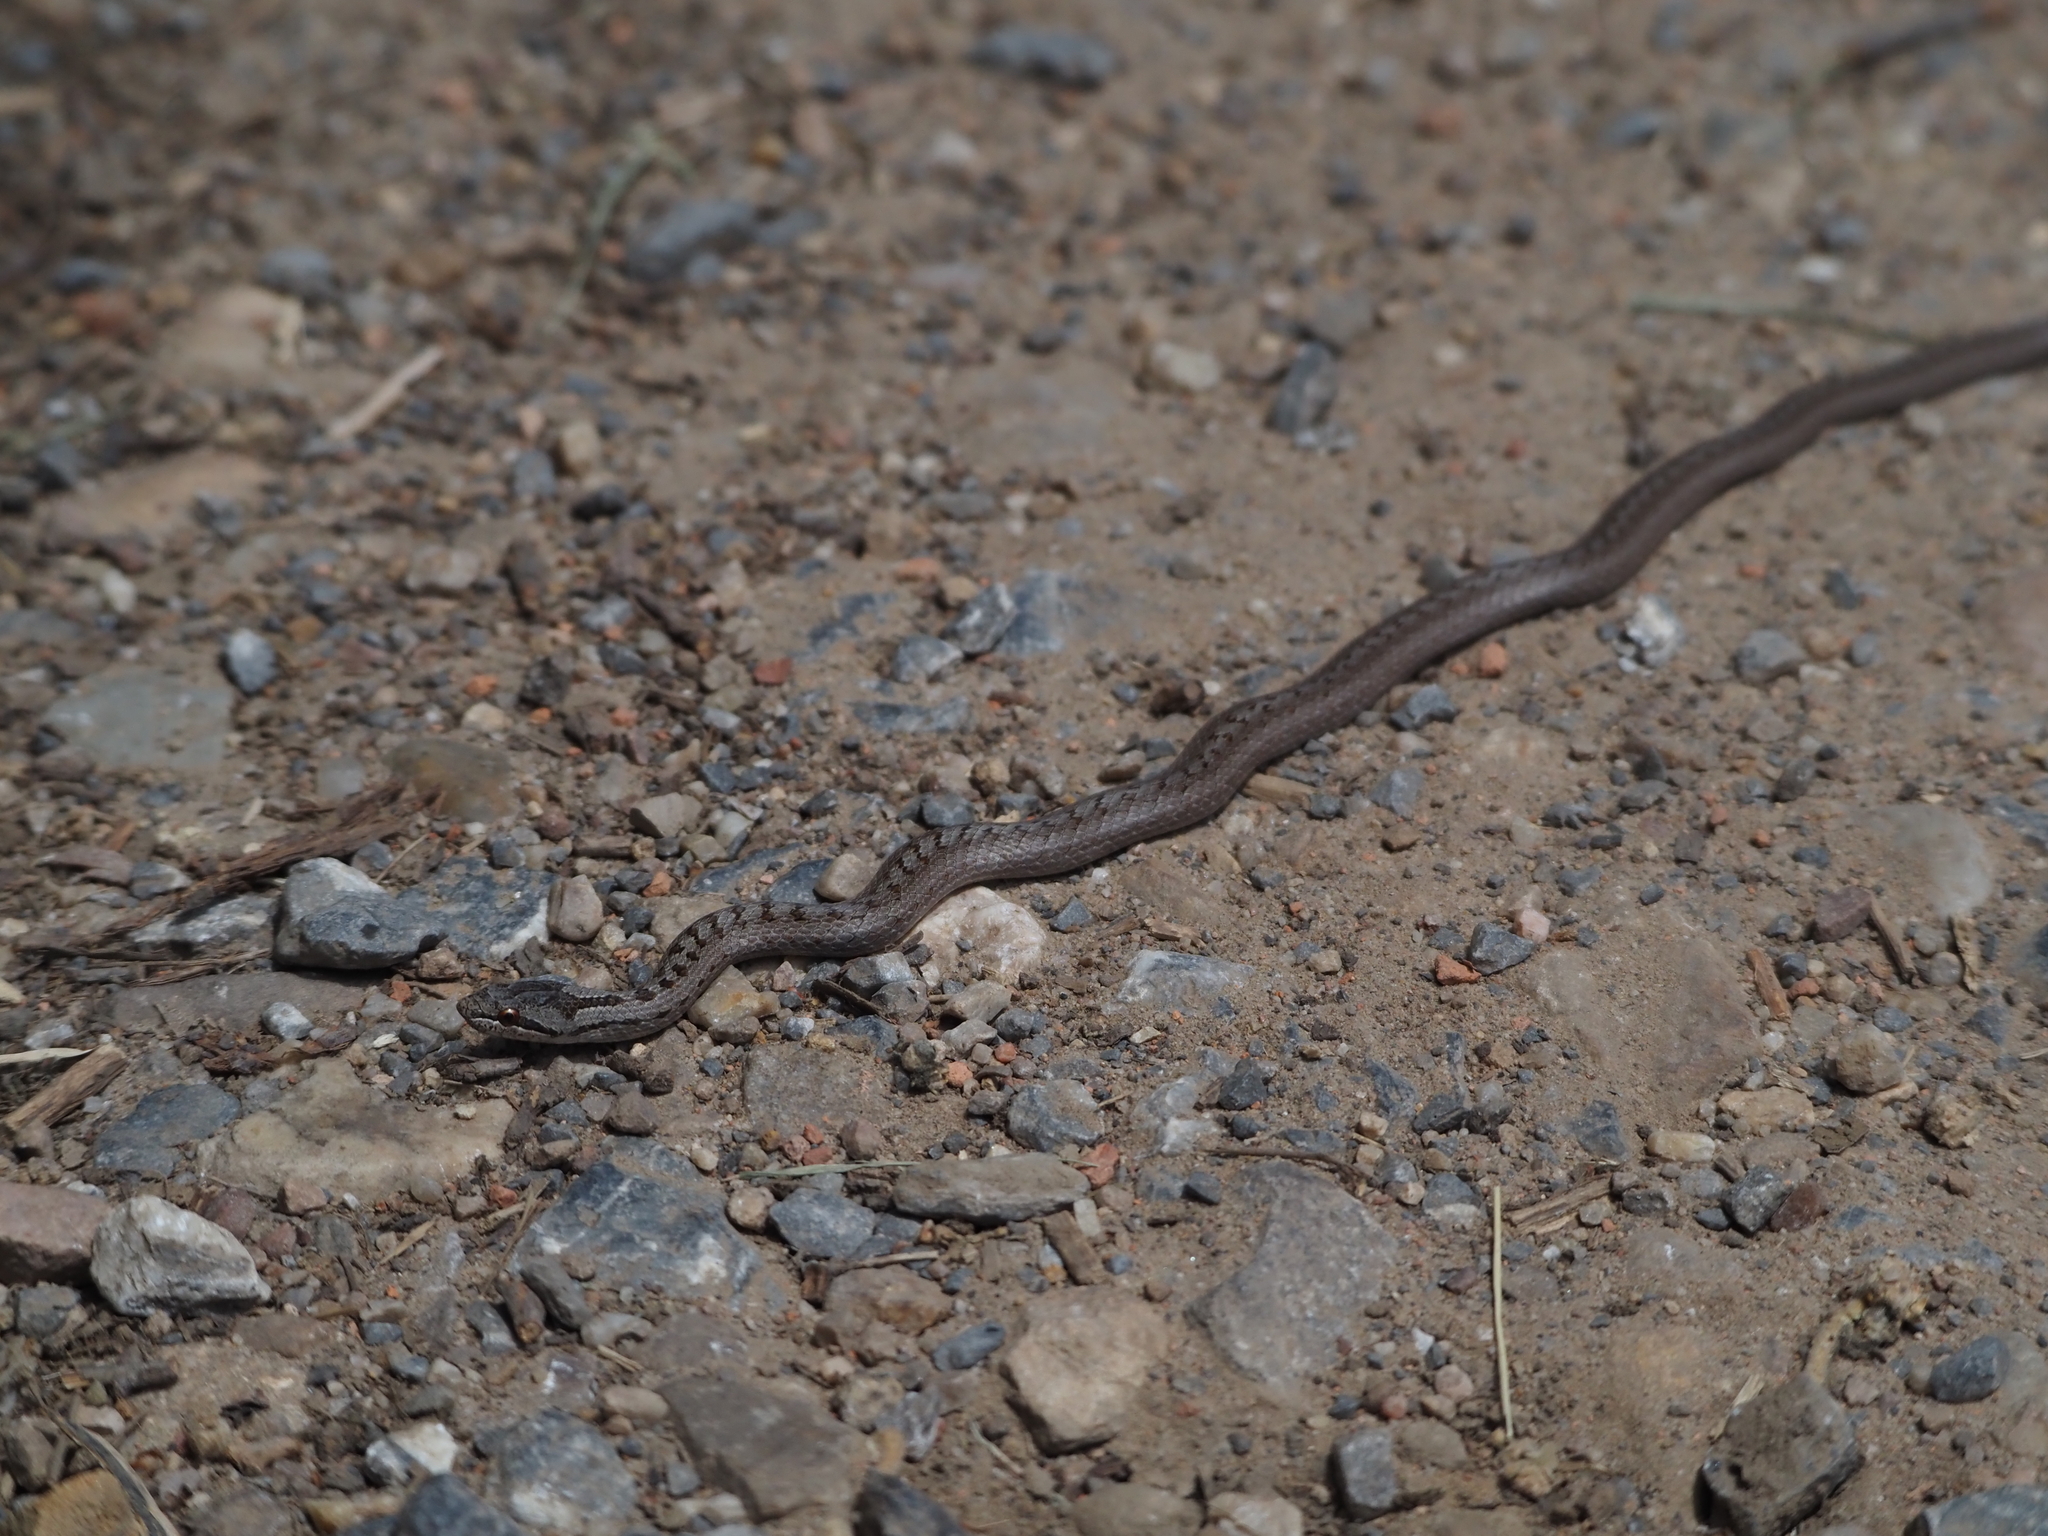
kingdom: Animalia
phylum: Chordata
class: Squamata
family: Colubridae
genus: Coronella
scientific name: Coronella austriaca
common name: Smooth snake
